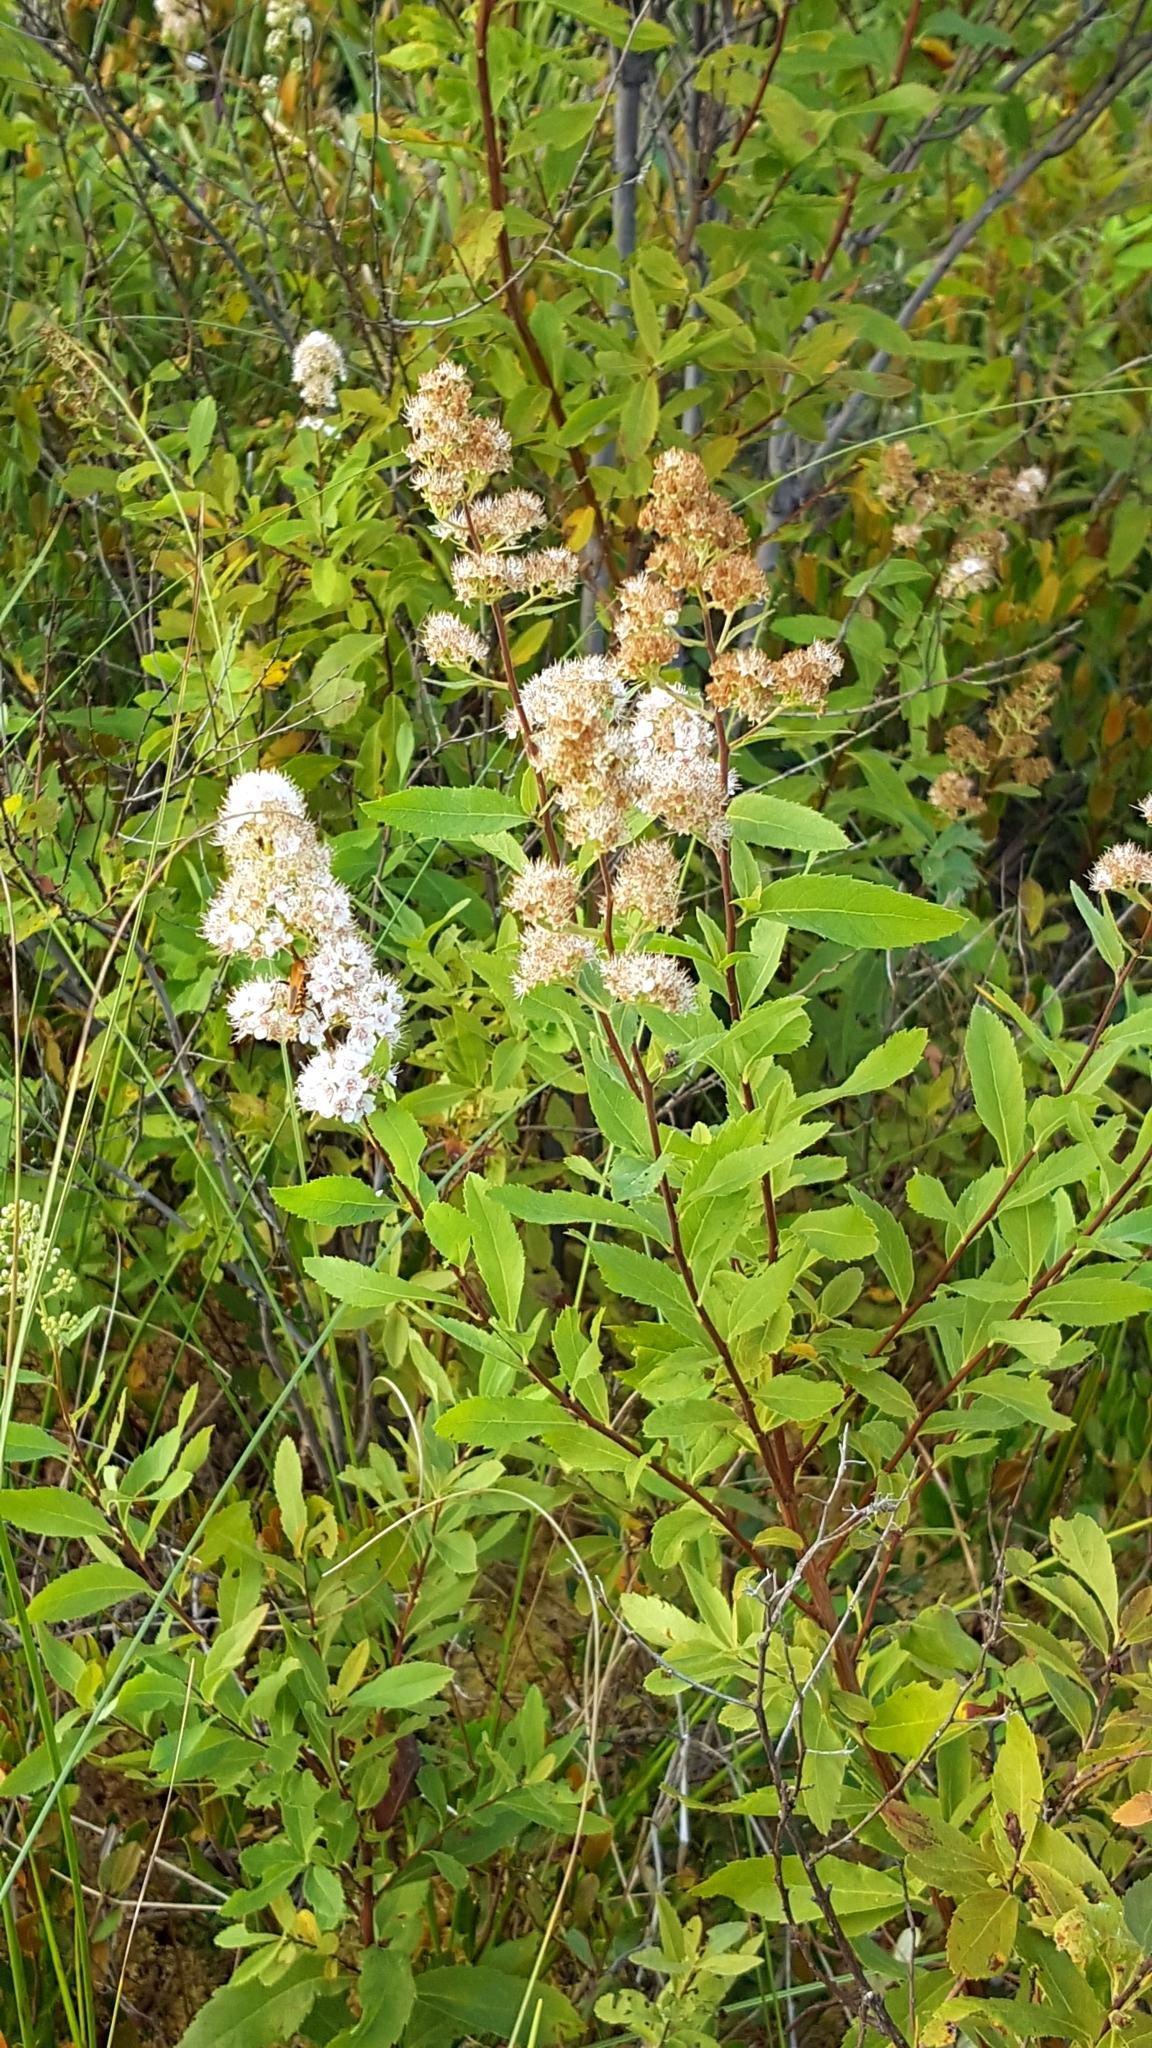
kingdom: Plantae
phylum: Tracheophyta
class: Magnoliopsida
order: Rosales
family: Rosaceae
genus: Spiraea
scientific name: Spiraea alba
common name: Pale bridewort
